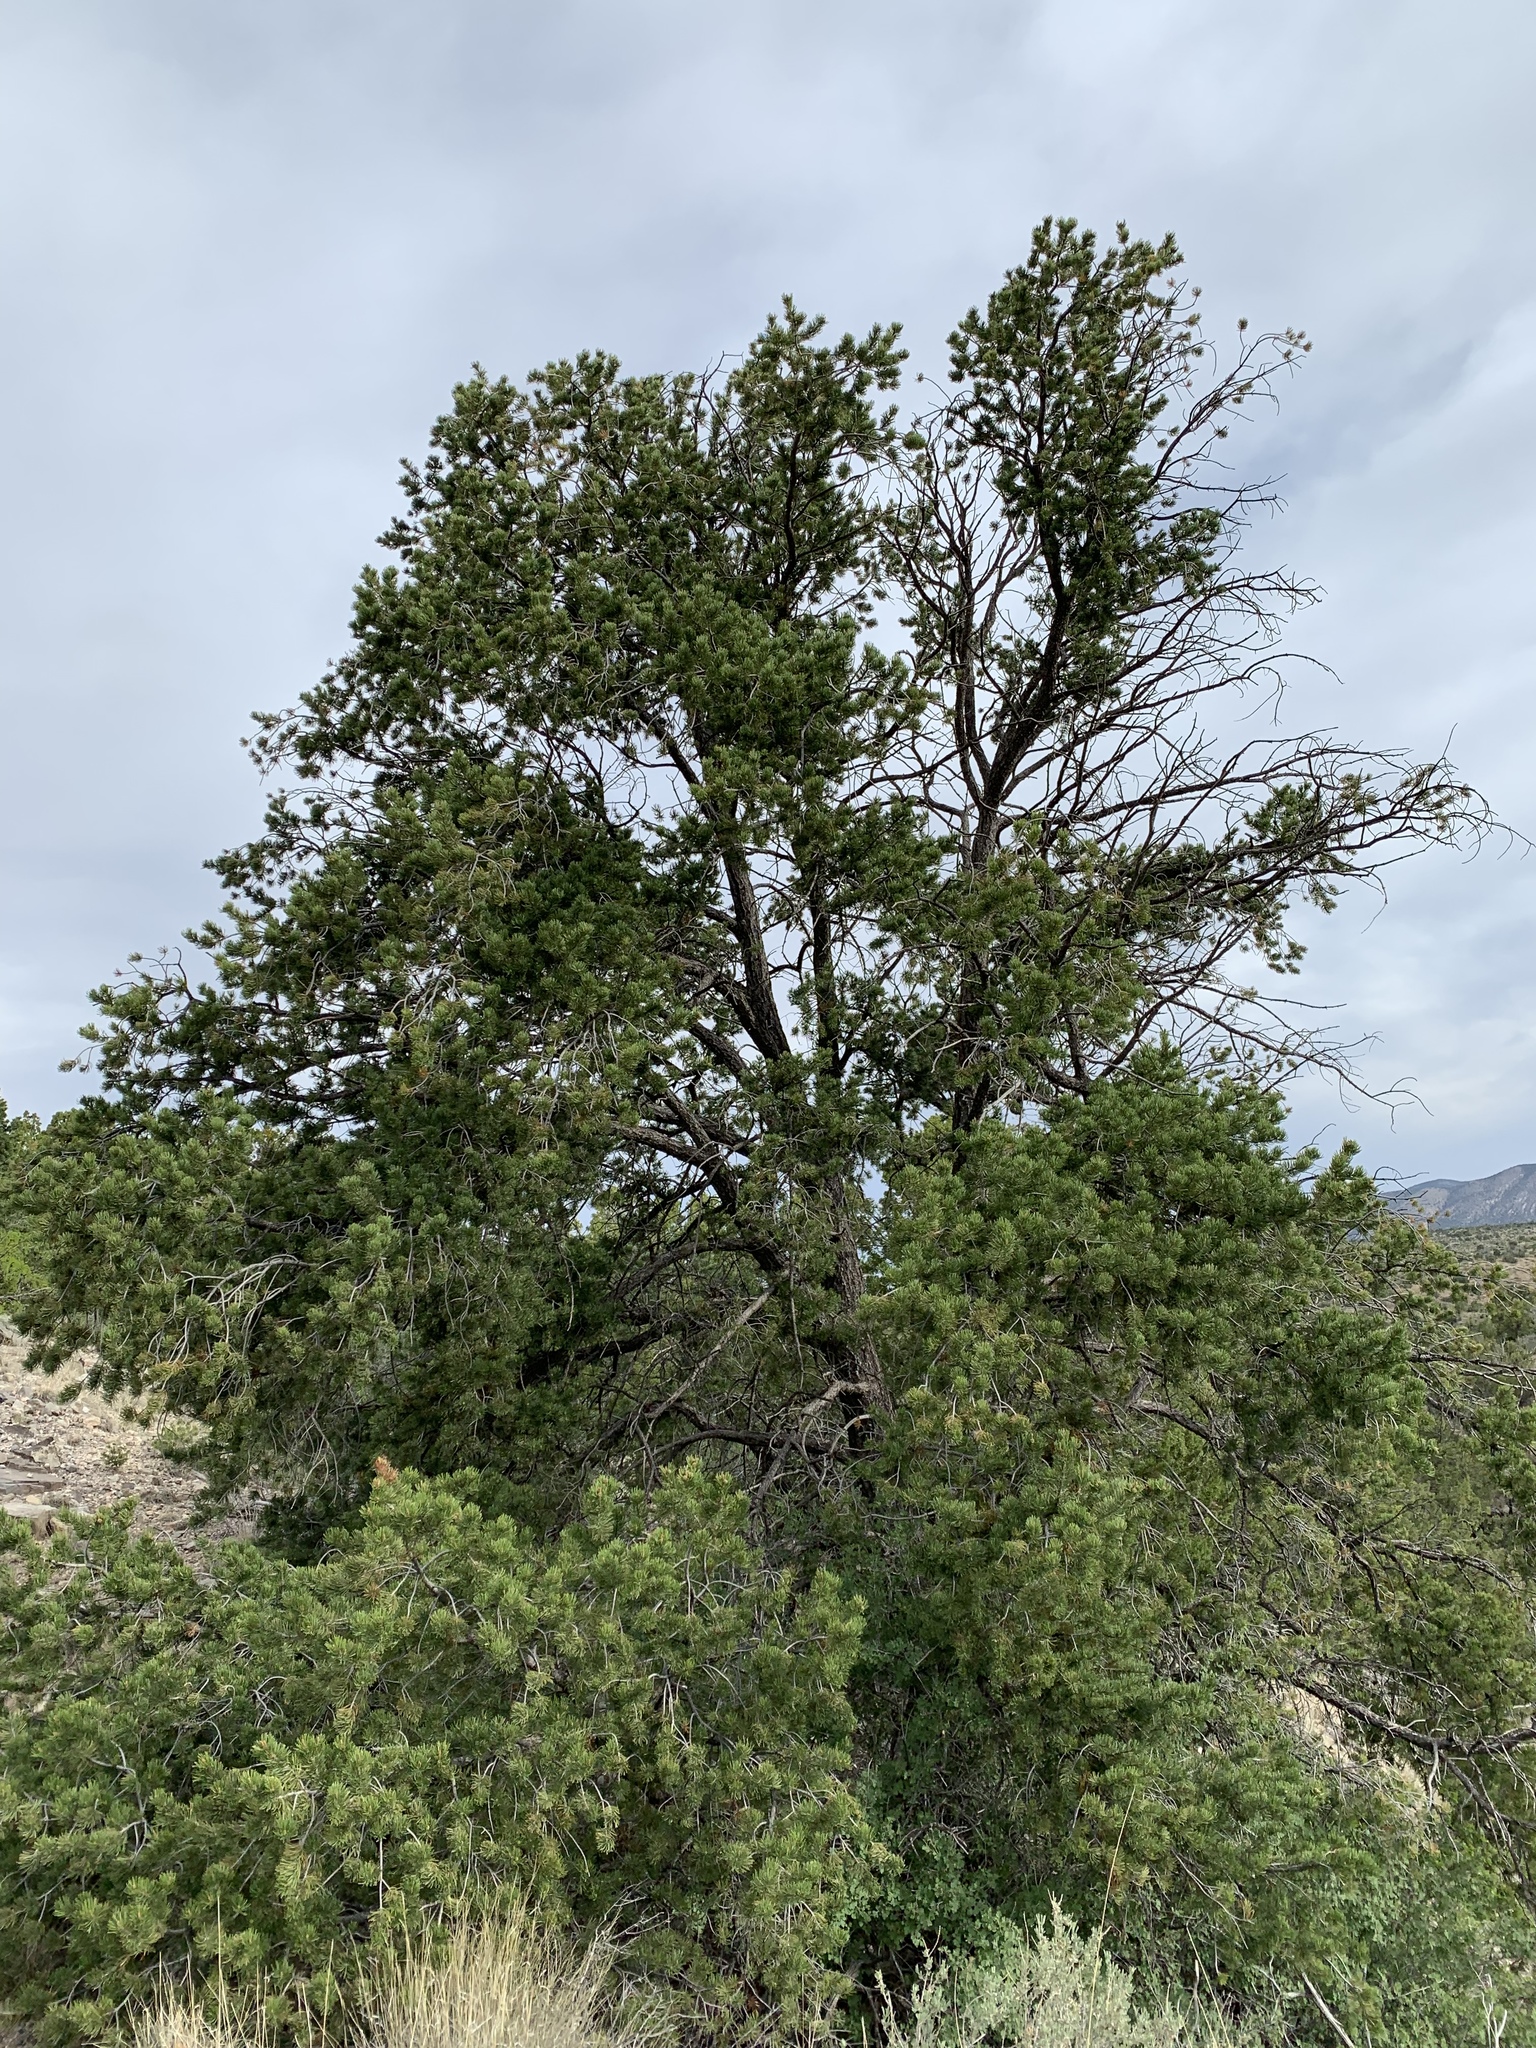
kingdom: Plantae
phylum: Tracheophyta
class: Pinopsida
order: Pinales
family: Pinaceae
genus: Pinus
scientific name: Pinus edulis
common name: Colorado pinyon
